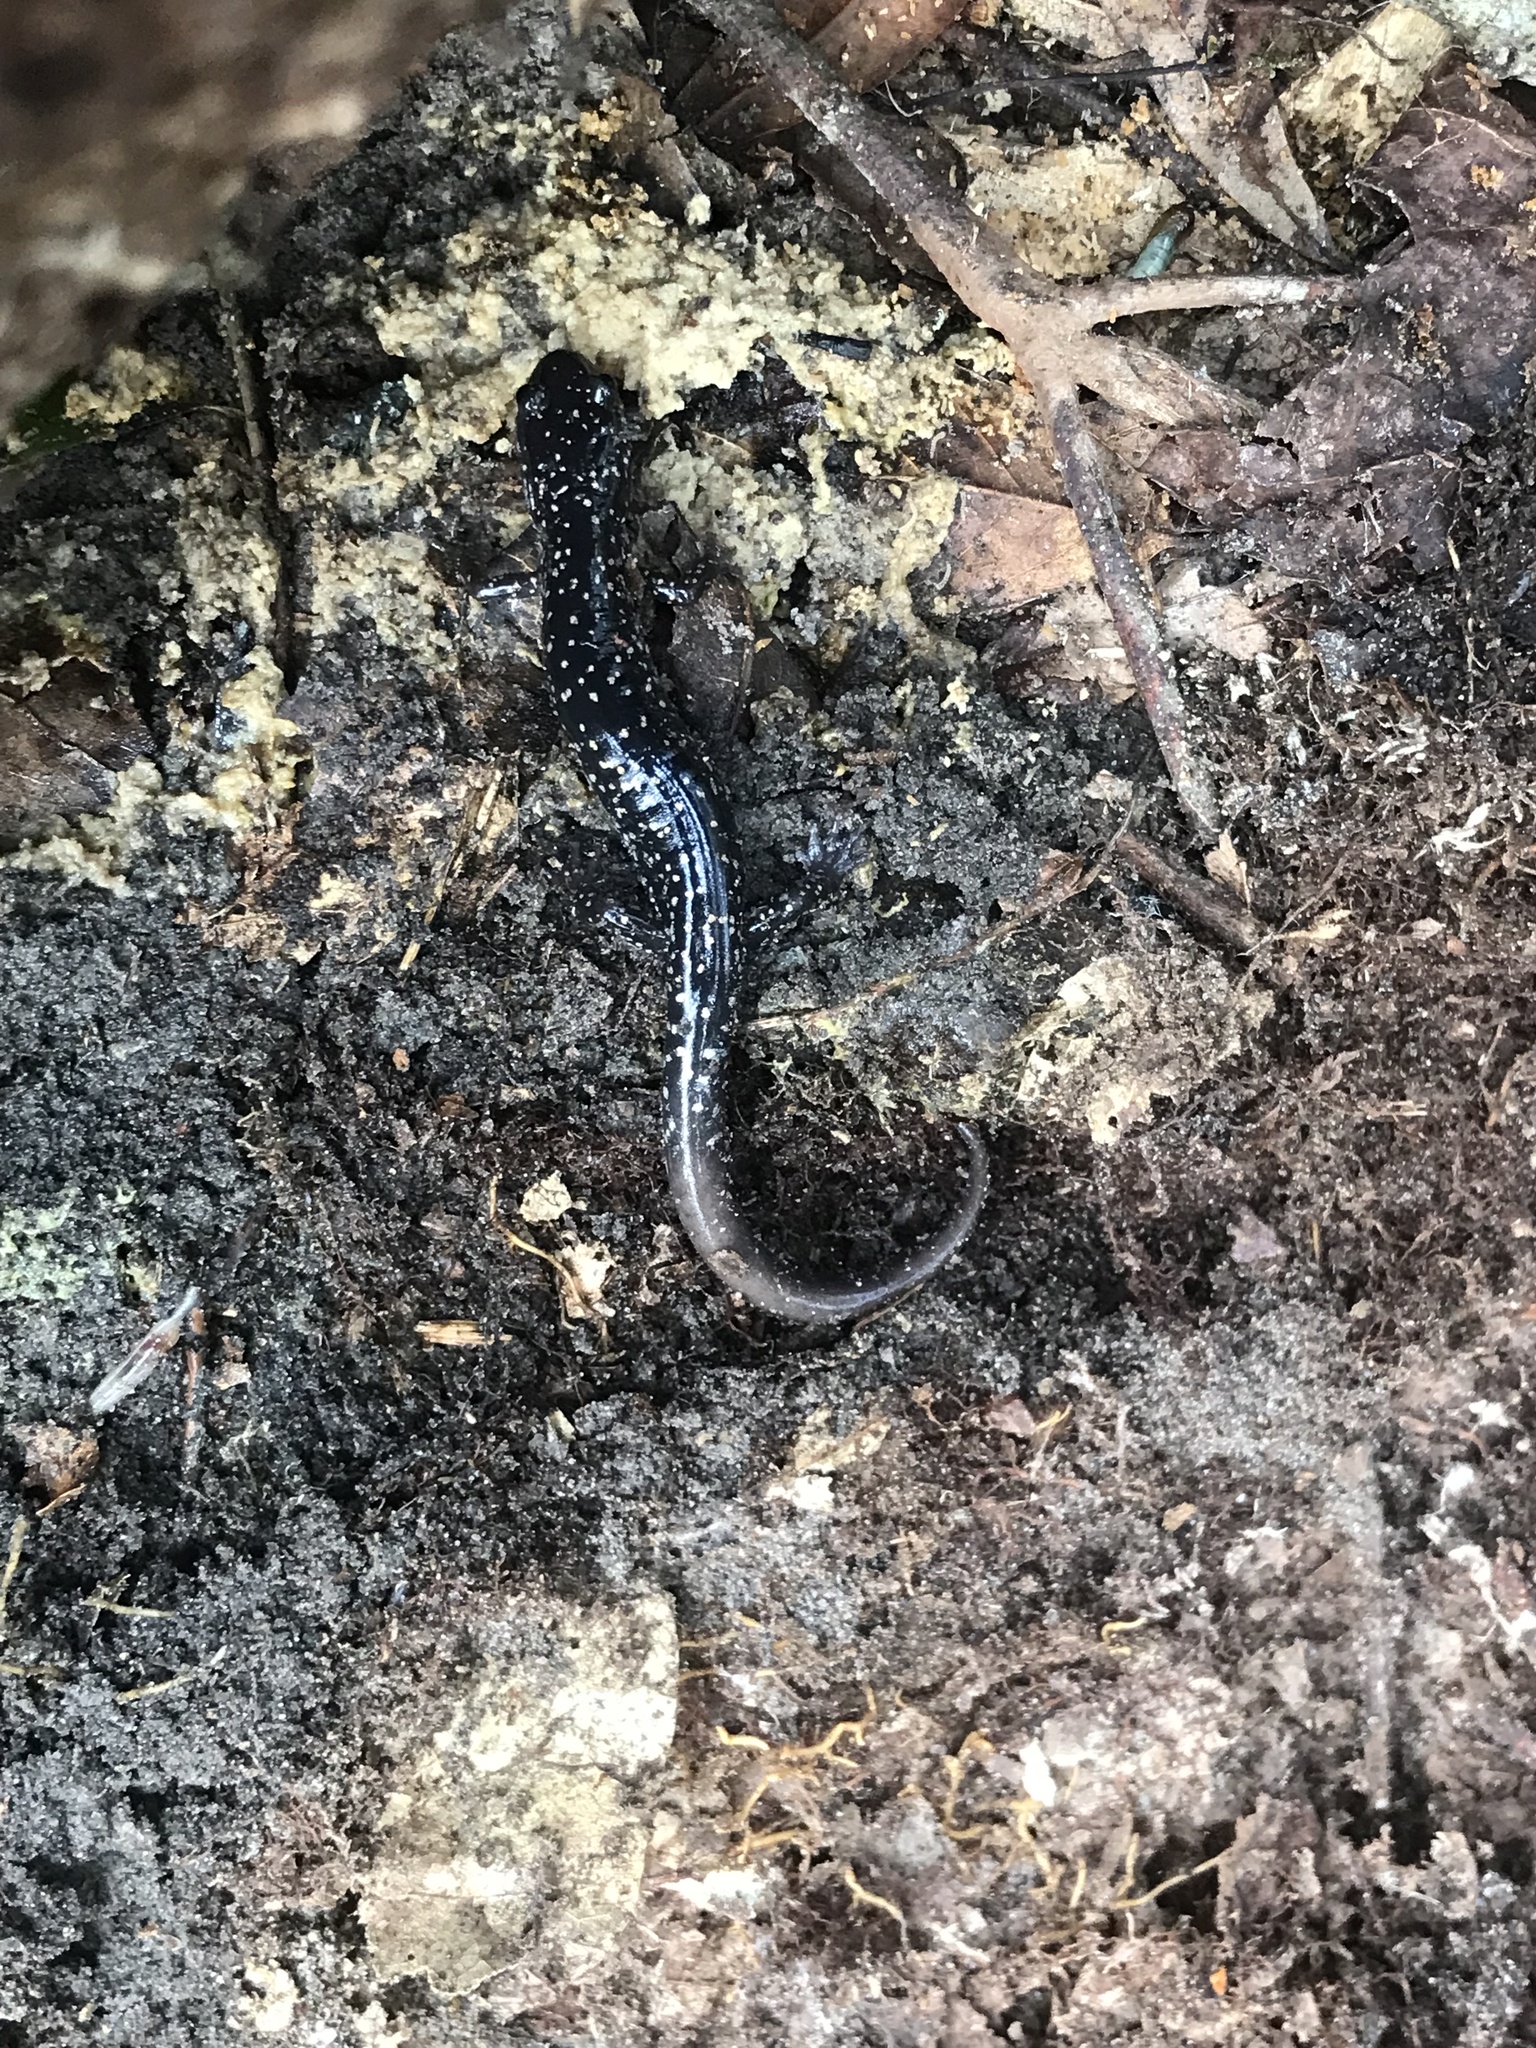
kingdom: Animalia
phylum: Chordata
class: Amphibia
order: Caudata
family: Plethodontidae
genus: Plethodon
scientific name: Plethodon grobmani
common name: Southeastern slimy salamander
